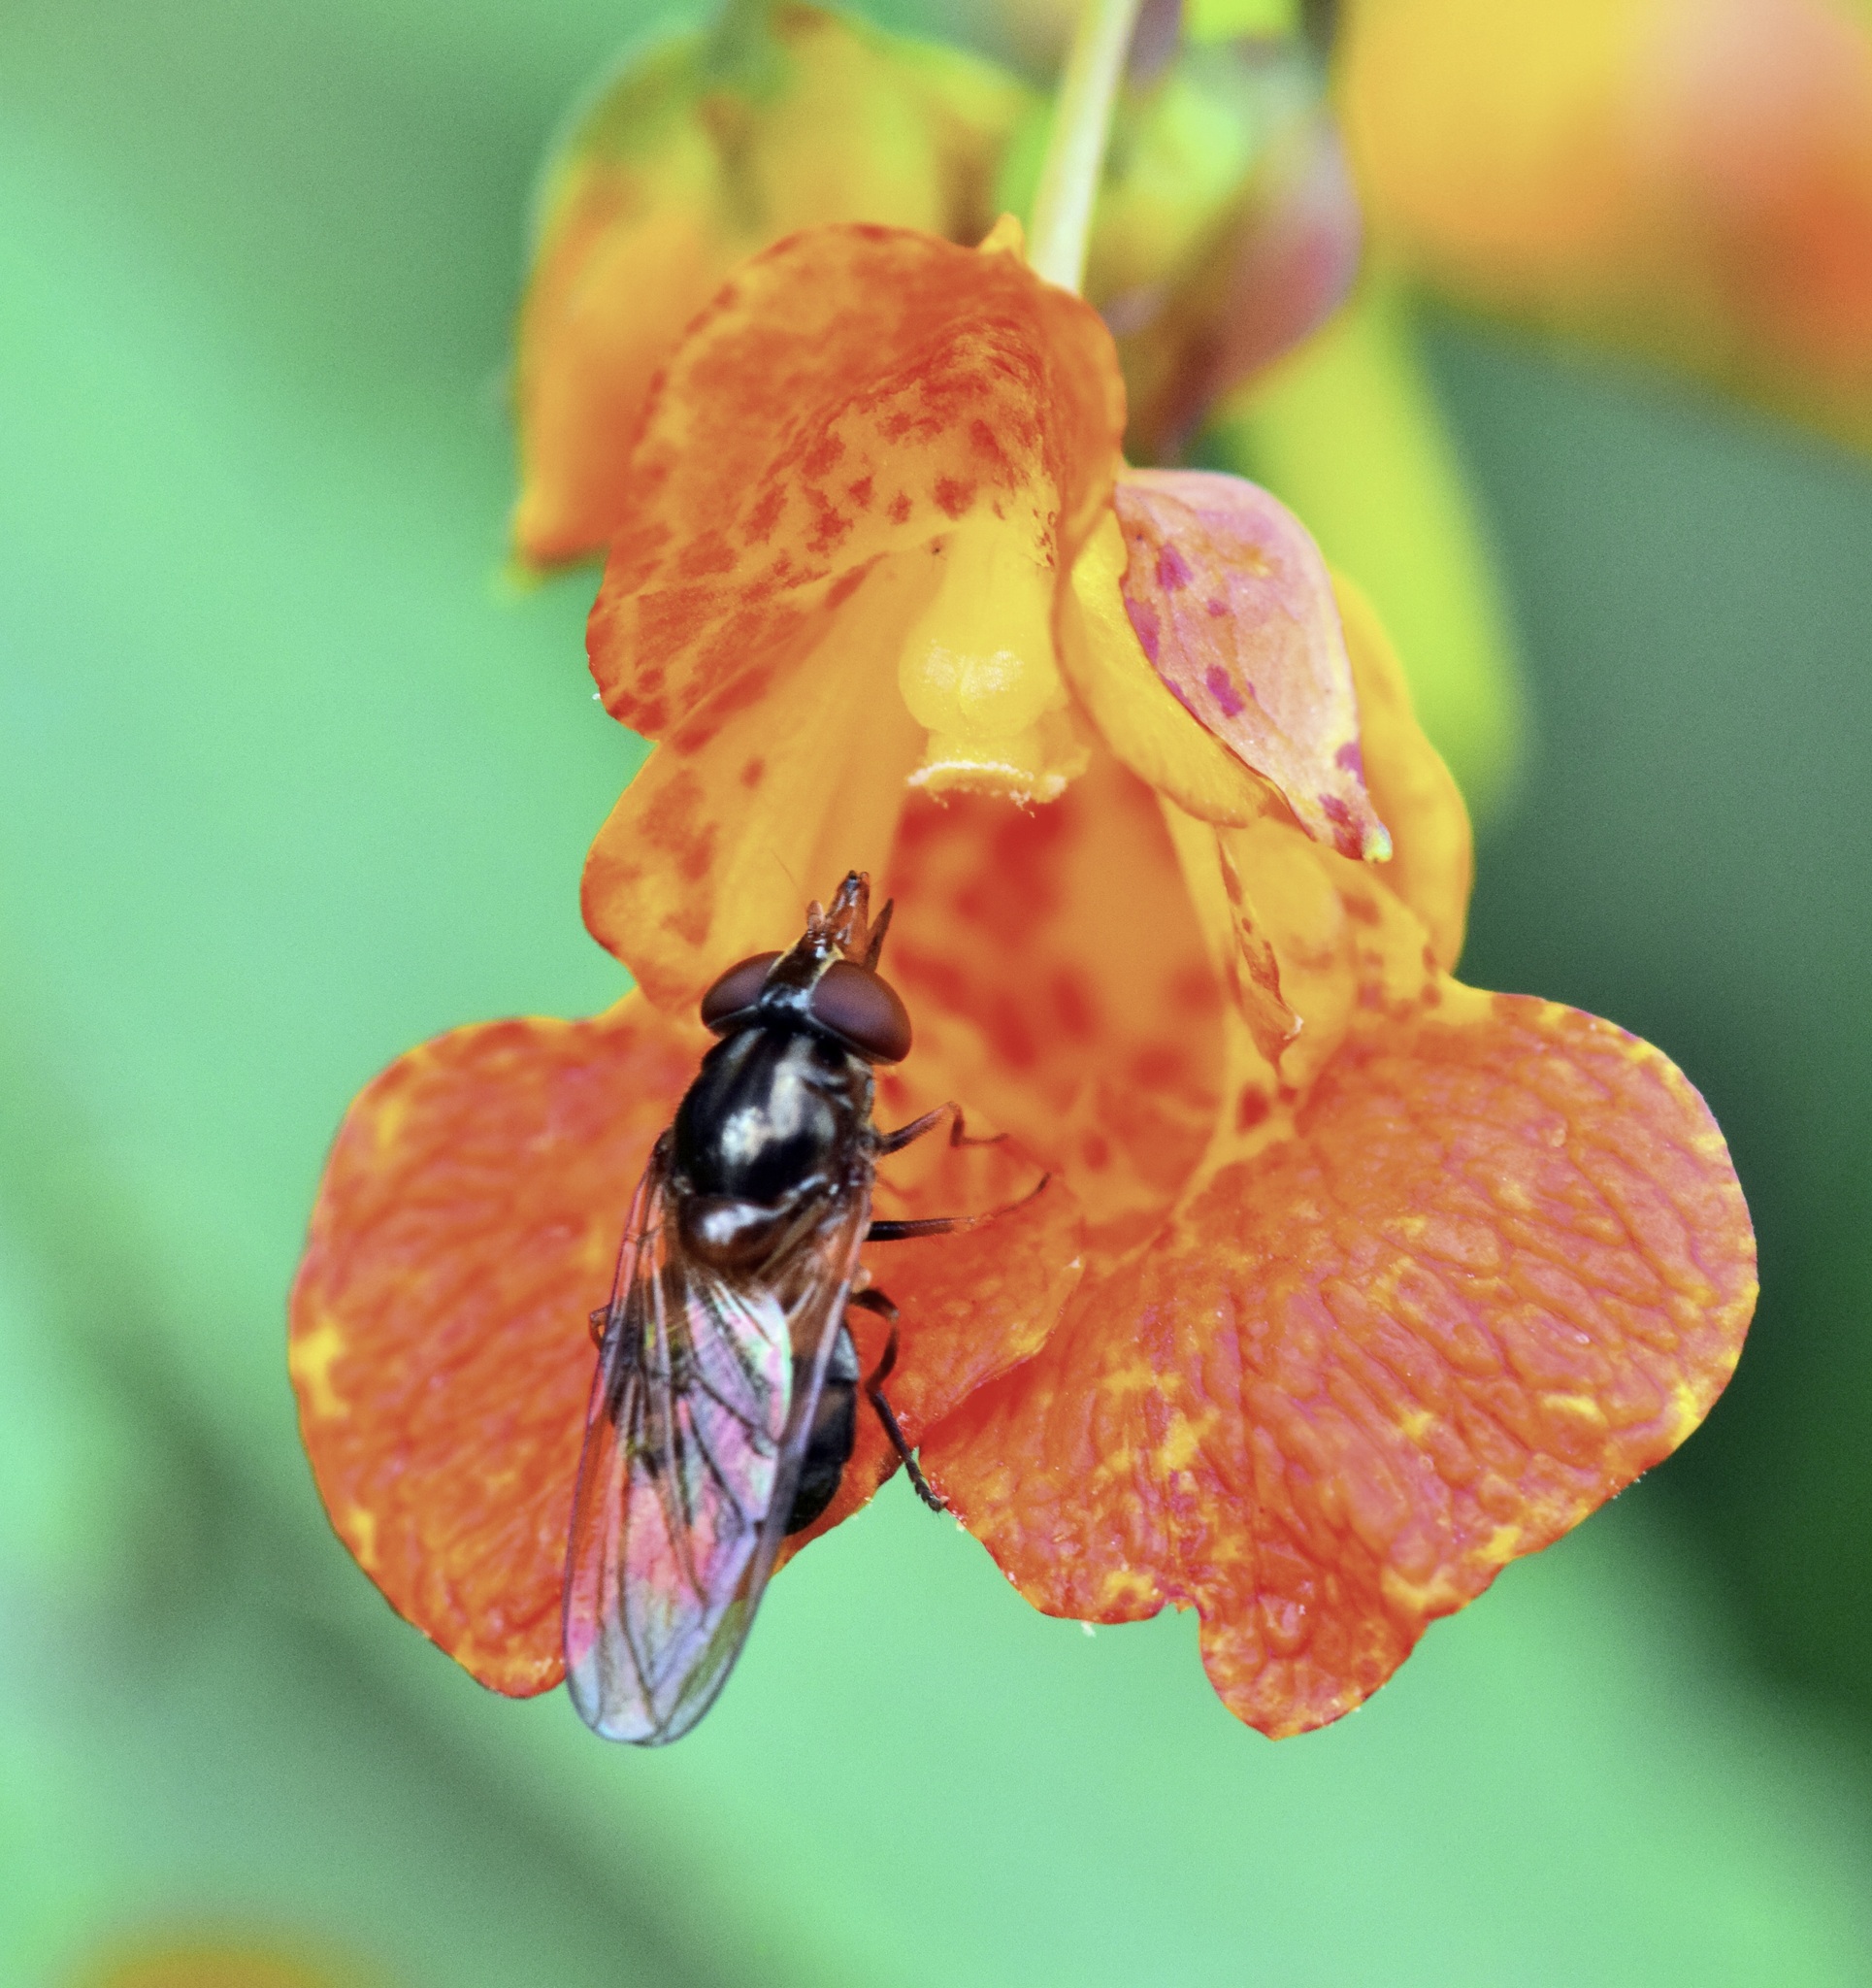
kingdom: Animalia
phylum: Arthropoda
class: Insecta
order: Diptera
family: Syrphidae
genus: Rhingia
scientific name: Rhingia nasica
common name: American snout fly
